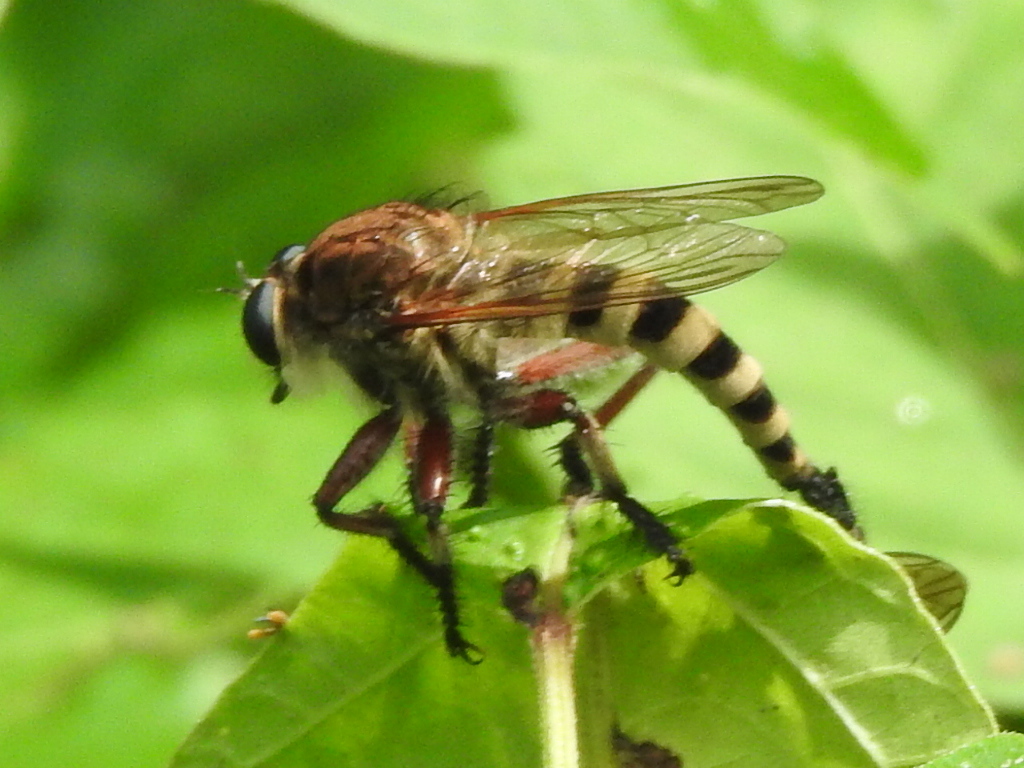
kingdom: Animalia
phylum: Arthropoda
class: Insecta
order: Diptera
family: Asilidae
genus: Promachus
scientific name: Promachus hinei
